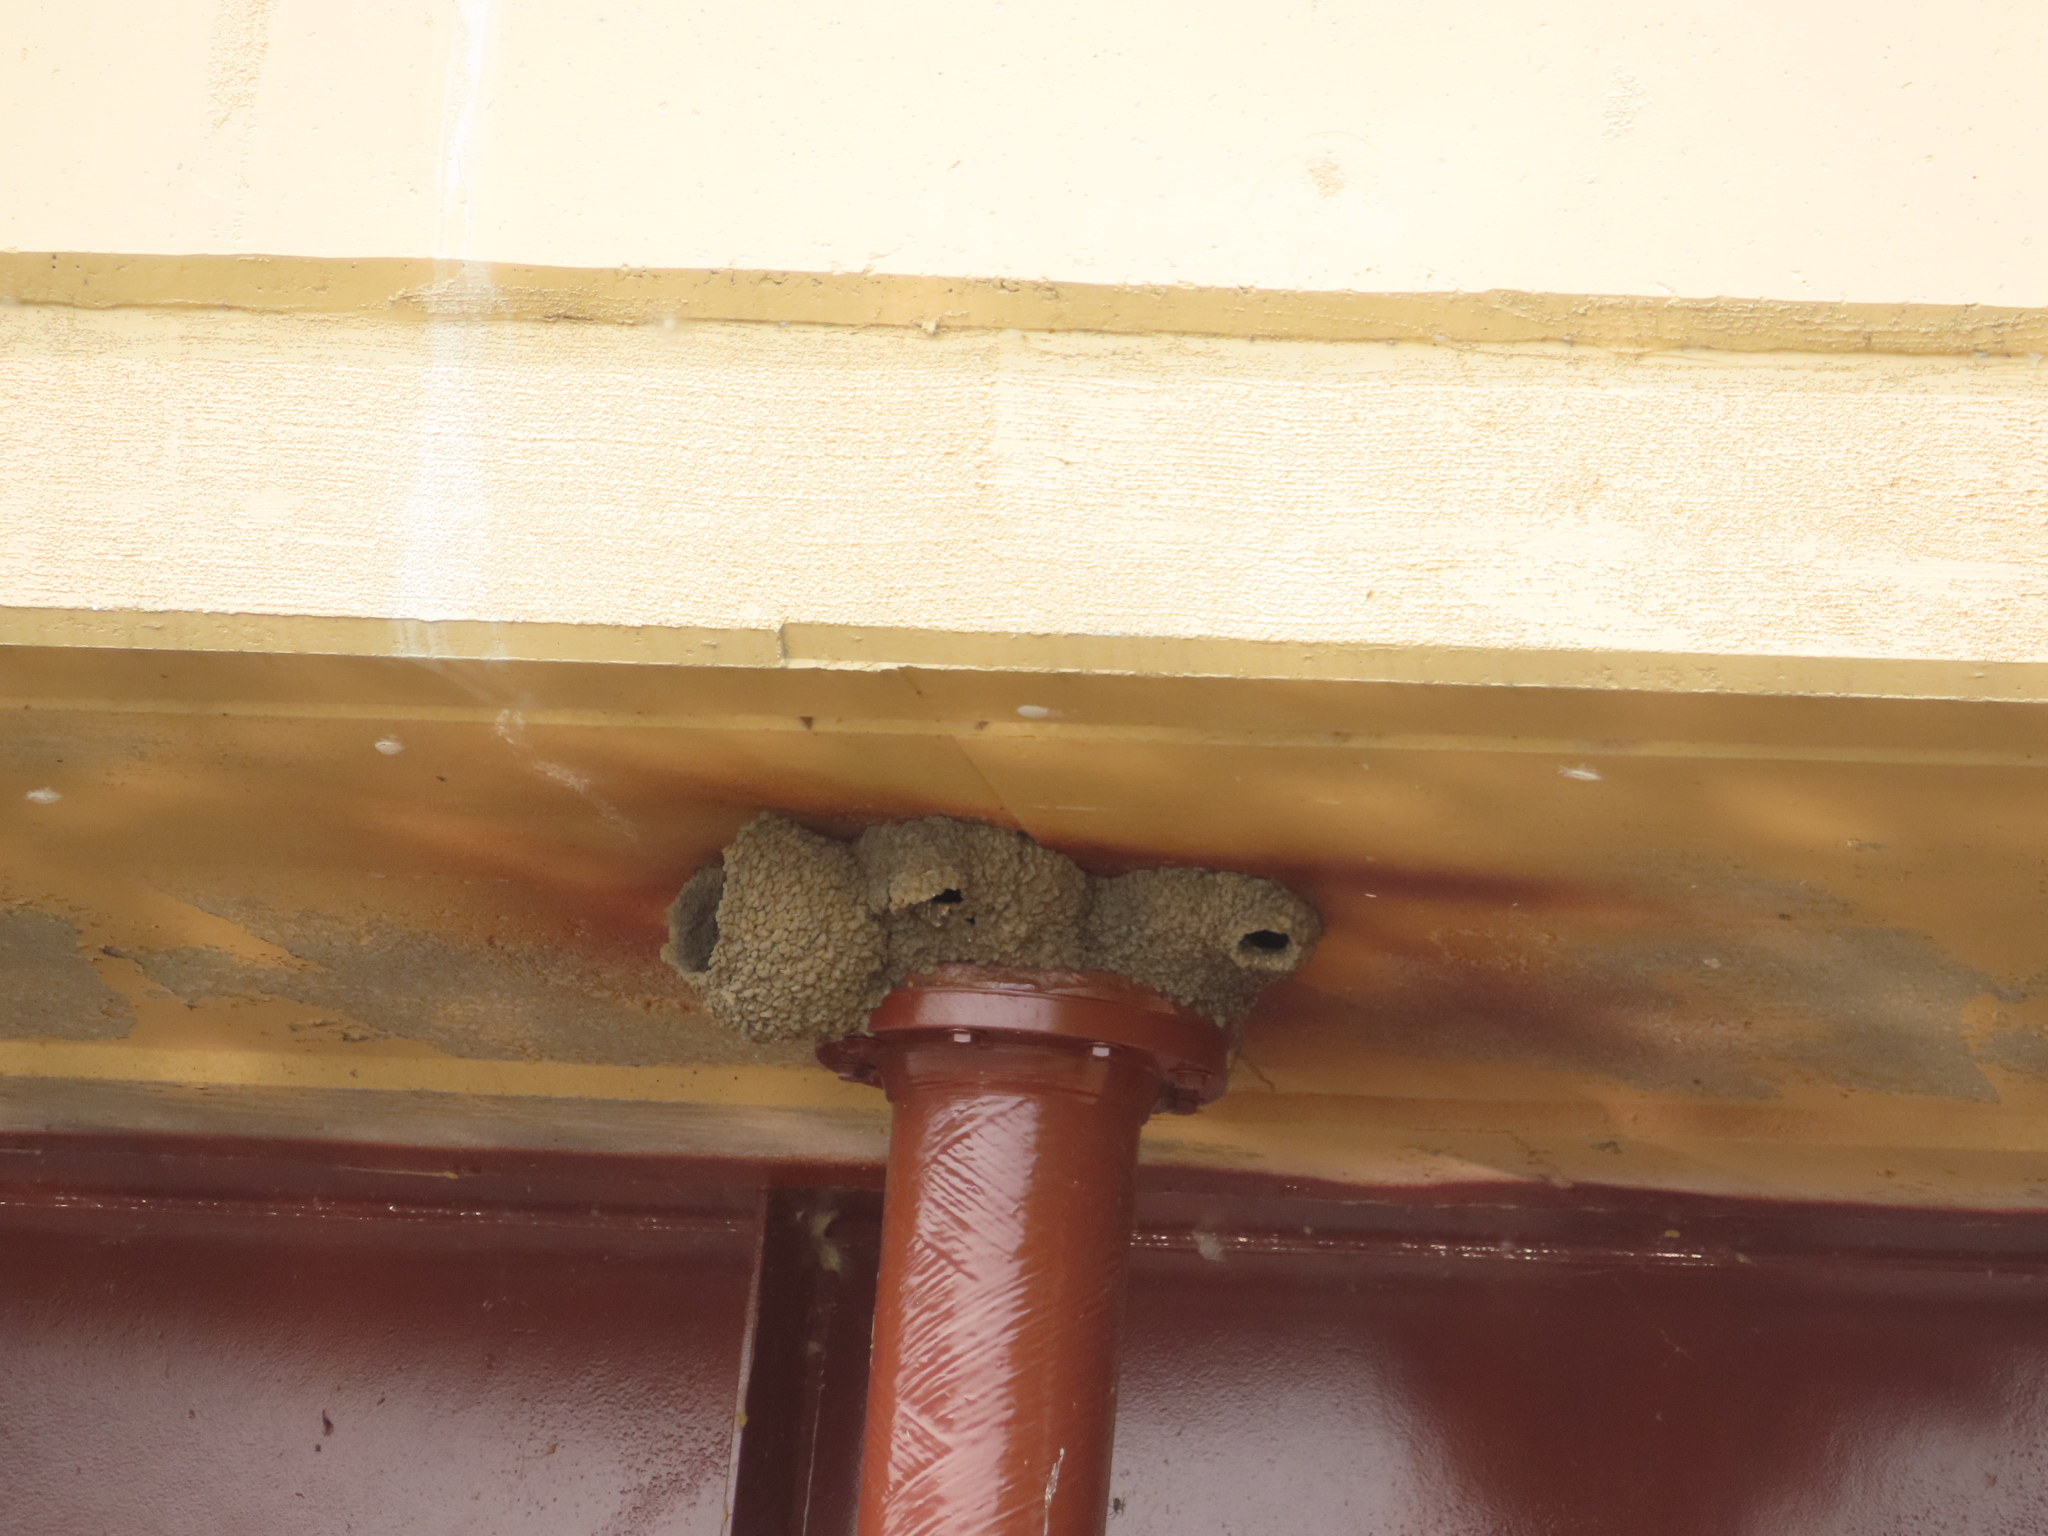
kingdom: Animalia
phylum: Chordata
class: Aves
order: Passeriformes
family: Hirundinidae
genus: Petrochelidon
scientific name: Petrochelidon pyrrhonota
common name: American cliff swallow
